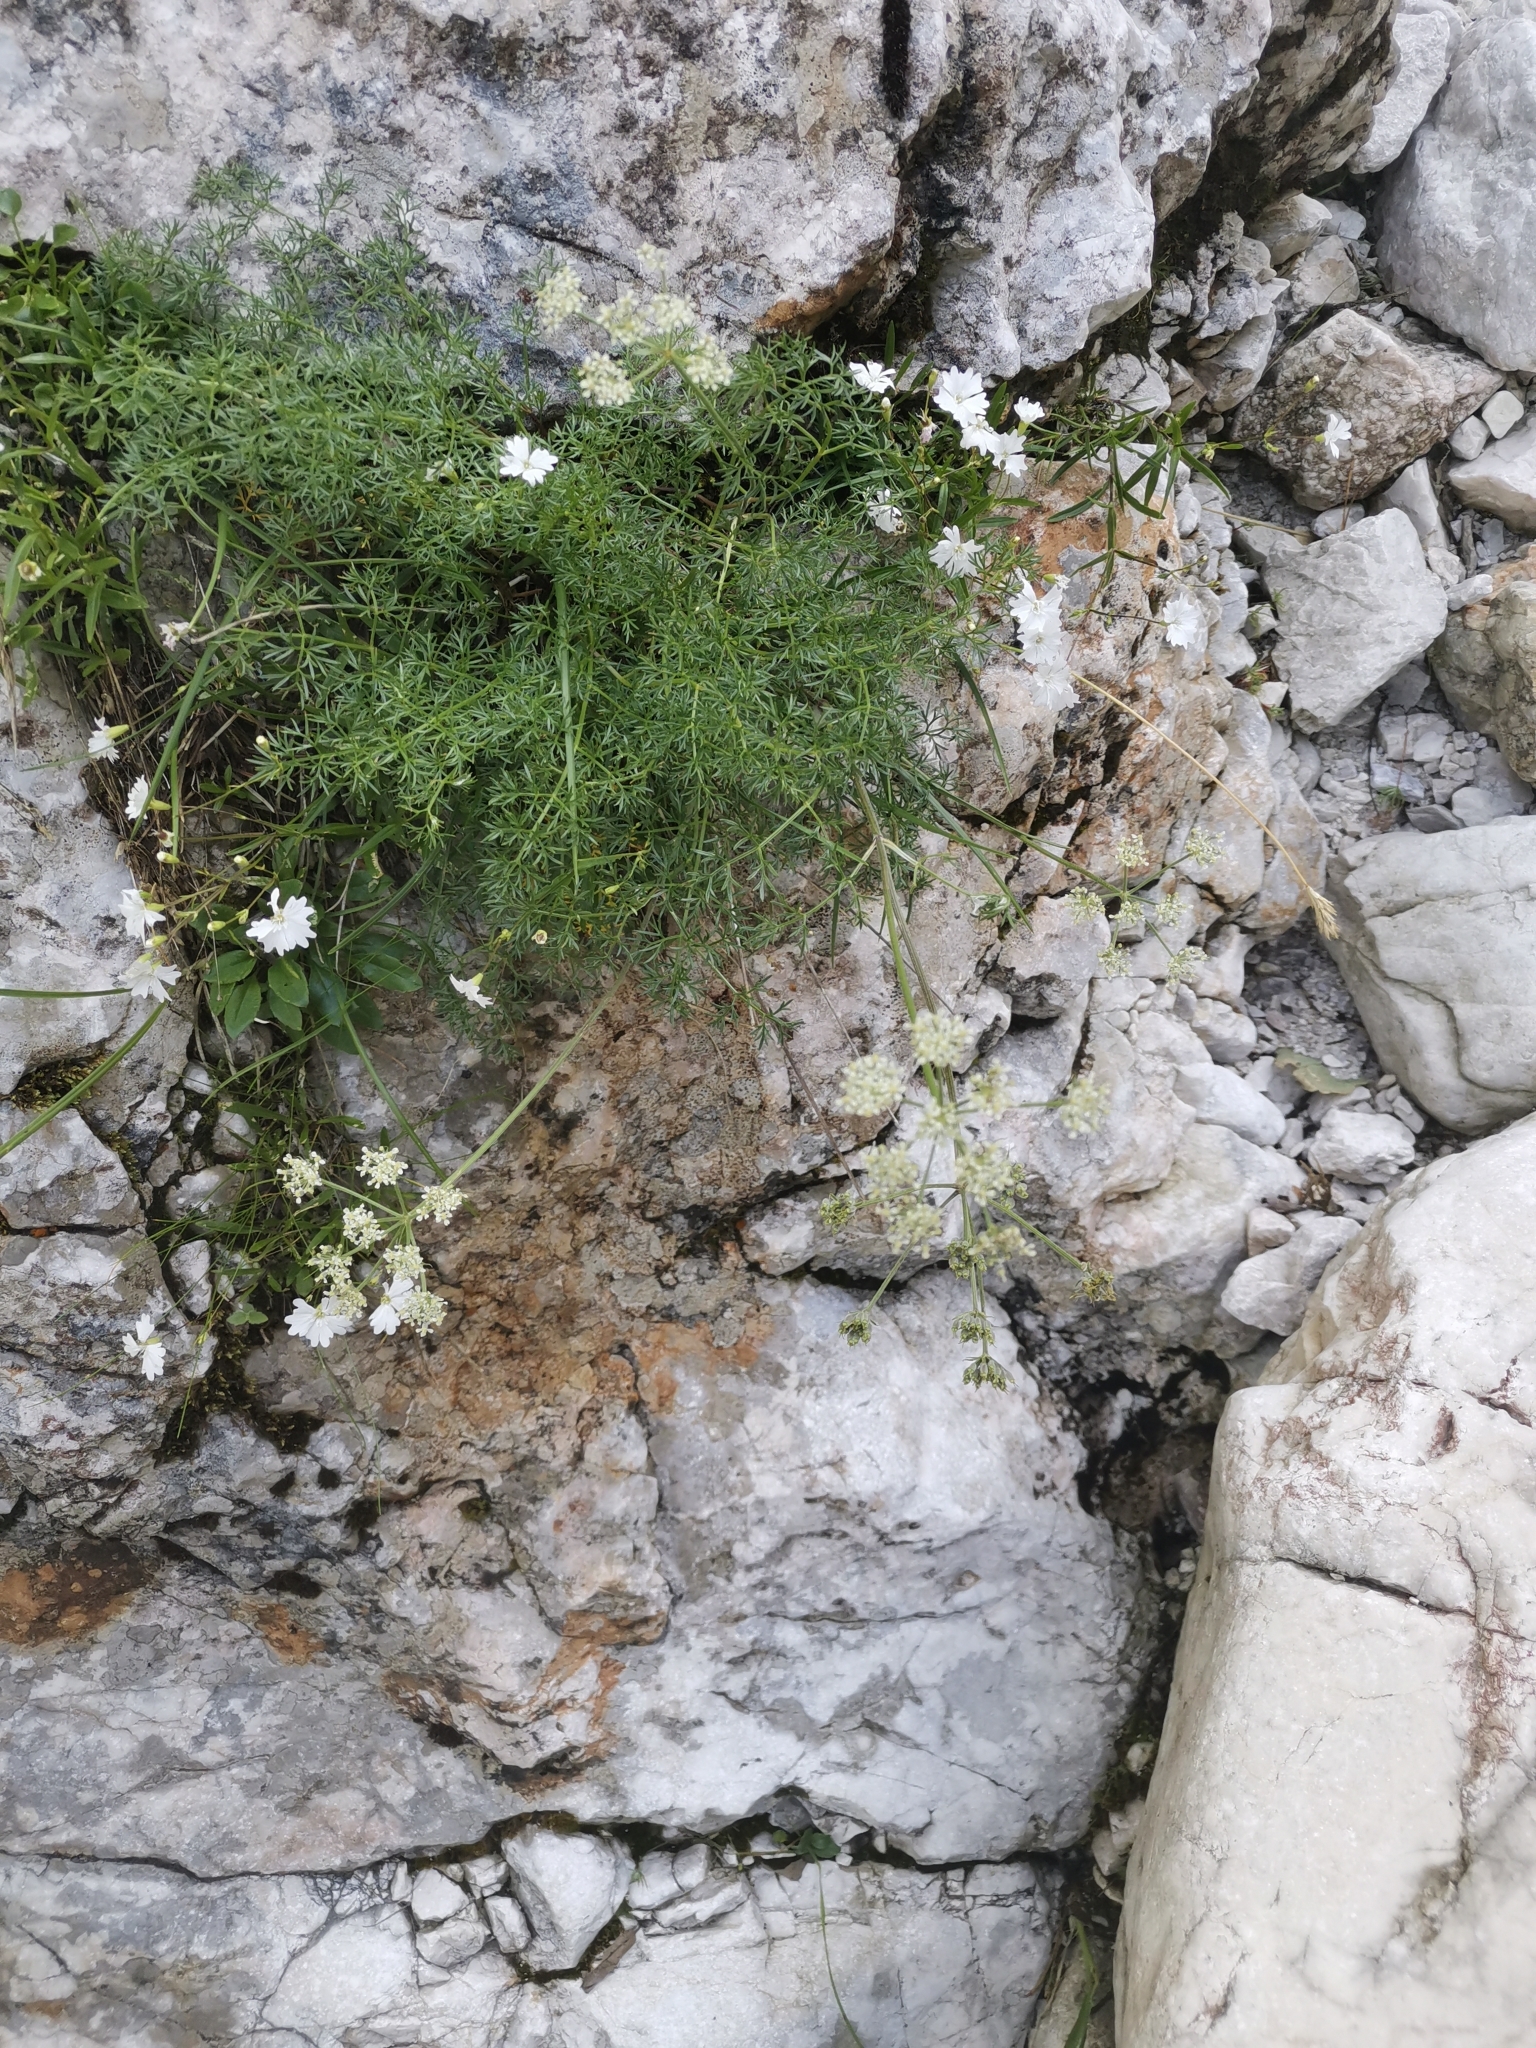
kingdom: Plantae
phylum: Tracheophyta
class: Magnoliopsida
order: Apiales
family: Apiaceae
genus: Athamanta
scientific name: Athamanta cretensis
